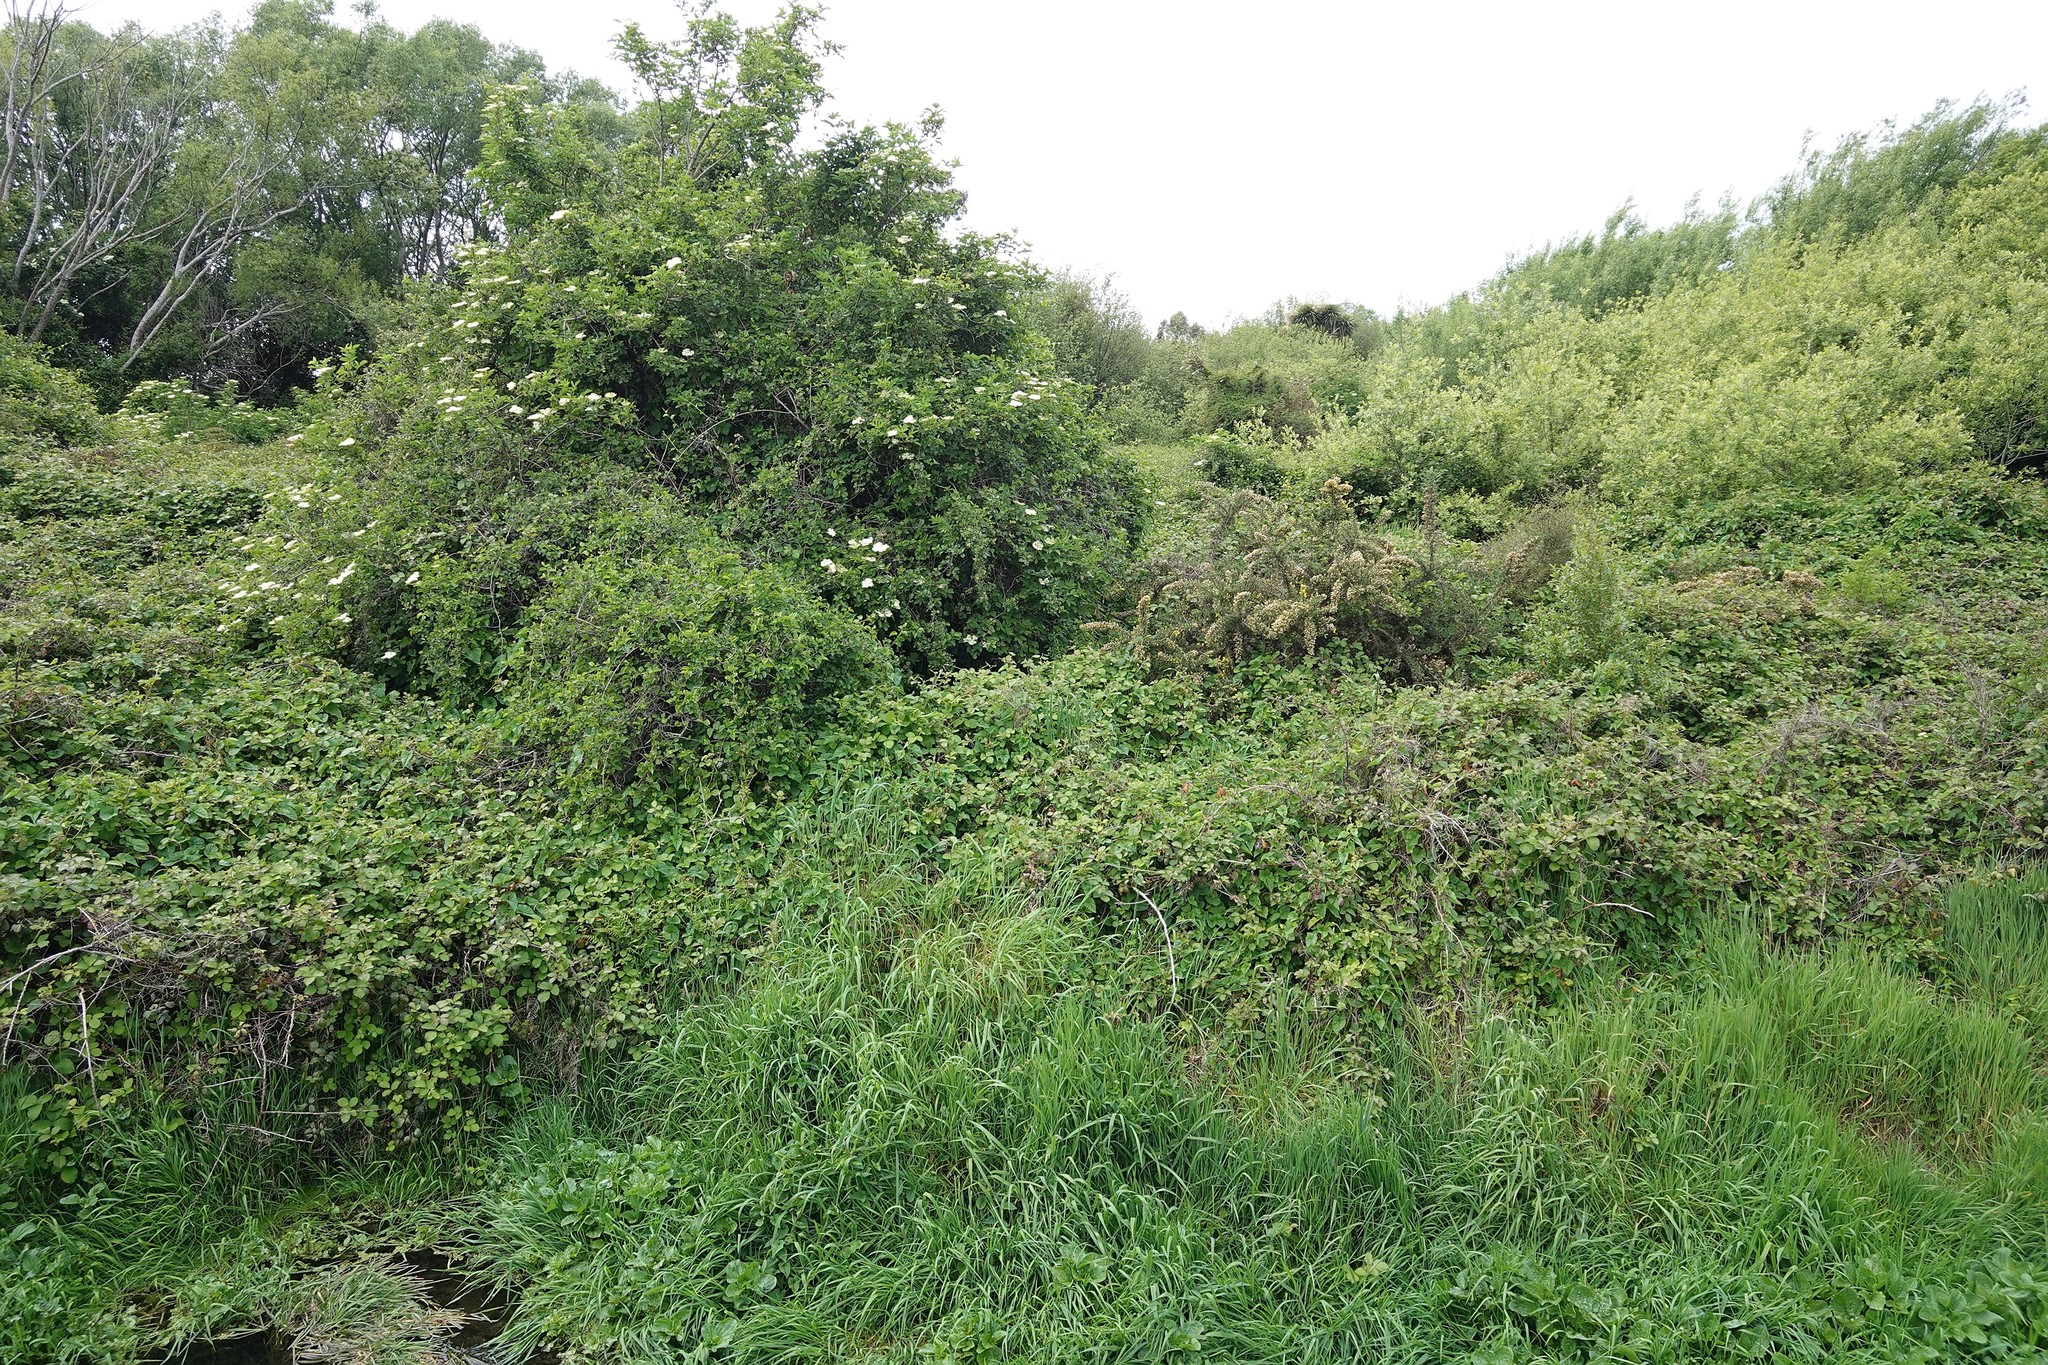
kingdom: Plantae
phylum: Tracheophyta
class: Magnoliopsida
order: Caryophyllales
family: Polygonaceae
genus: Muehlenbeckia
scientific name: Muehlenbeckia australis
